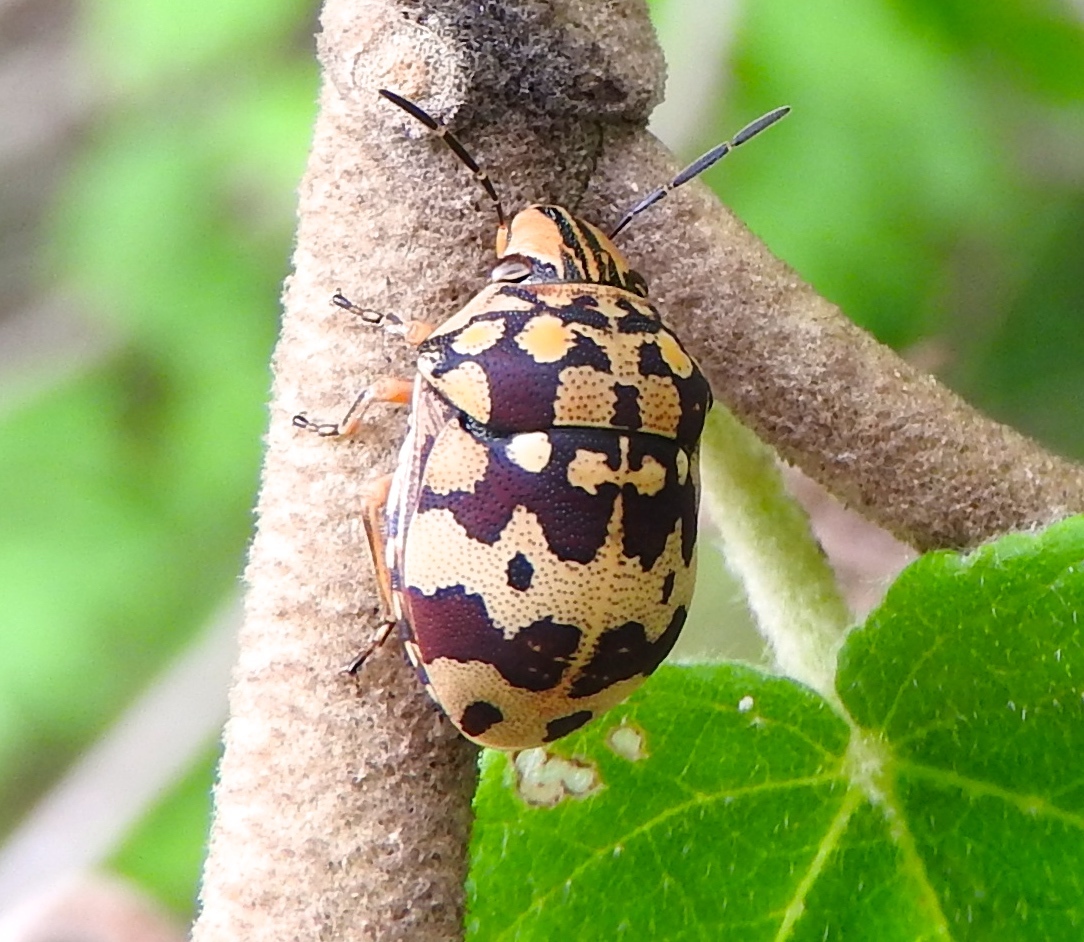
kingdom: Animalia
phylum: Arthropoda
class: Insecta
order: Hemiptera
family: Scutelleridae
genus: Orsilochides
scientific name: Orsilochides
